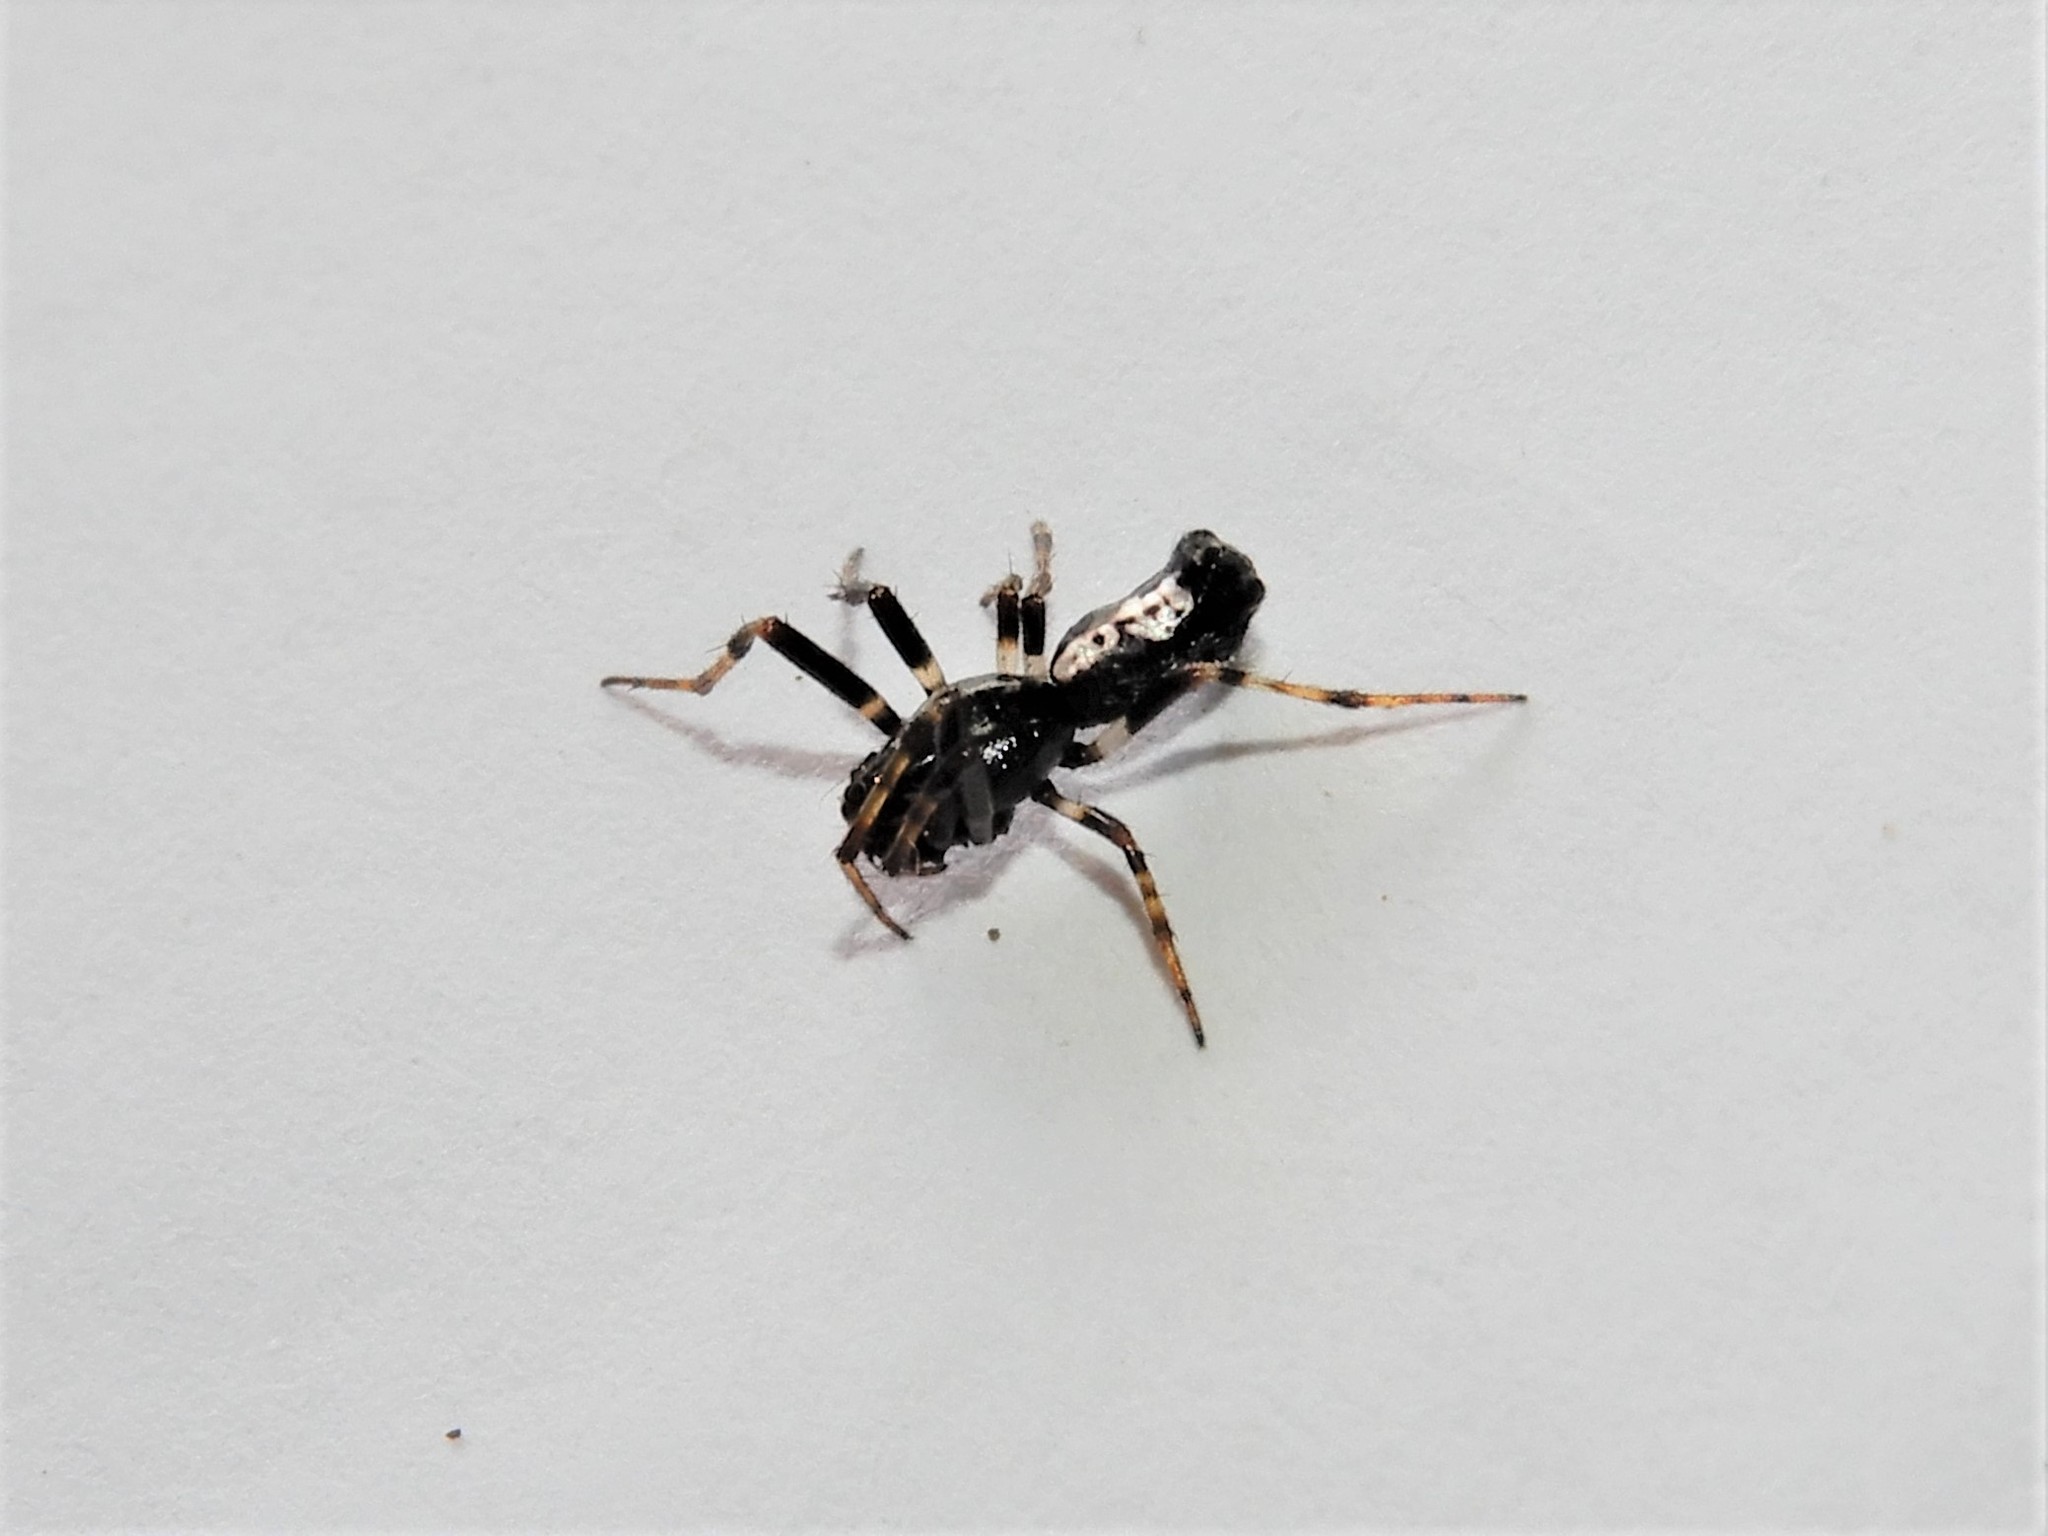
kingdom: Animalia
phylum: Arthropoda
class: Arachnida
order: Araneae
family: Araneidae
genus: Cyclosa
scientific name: Cyclosa trilobata
